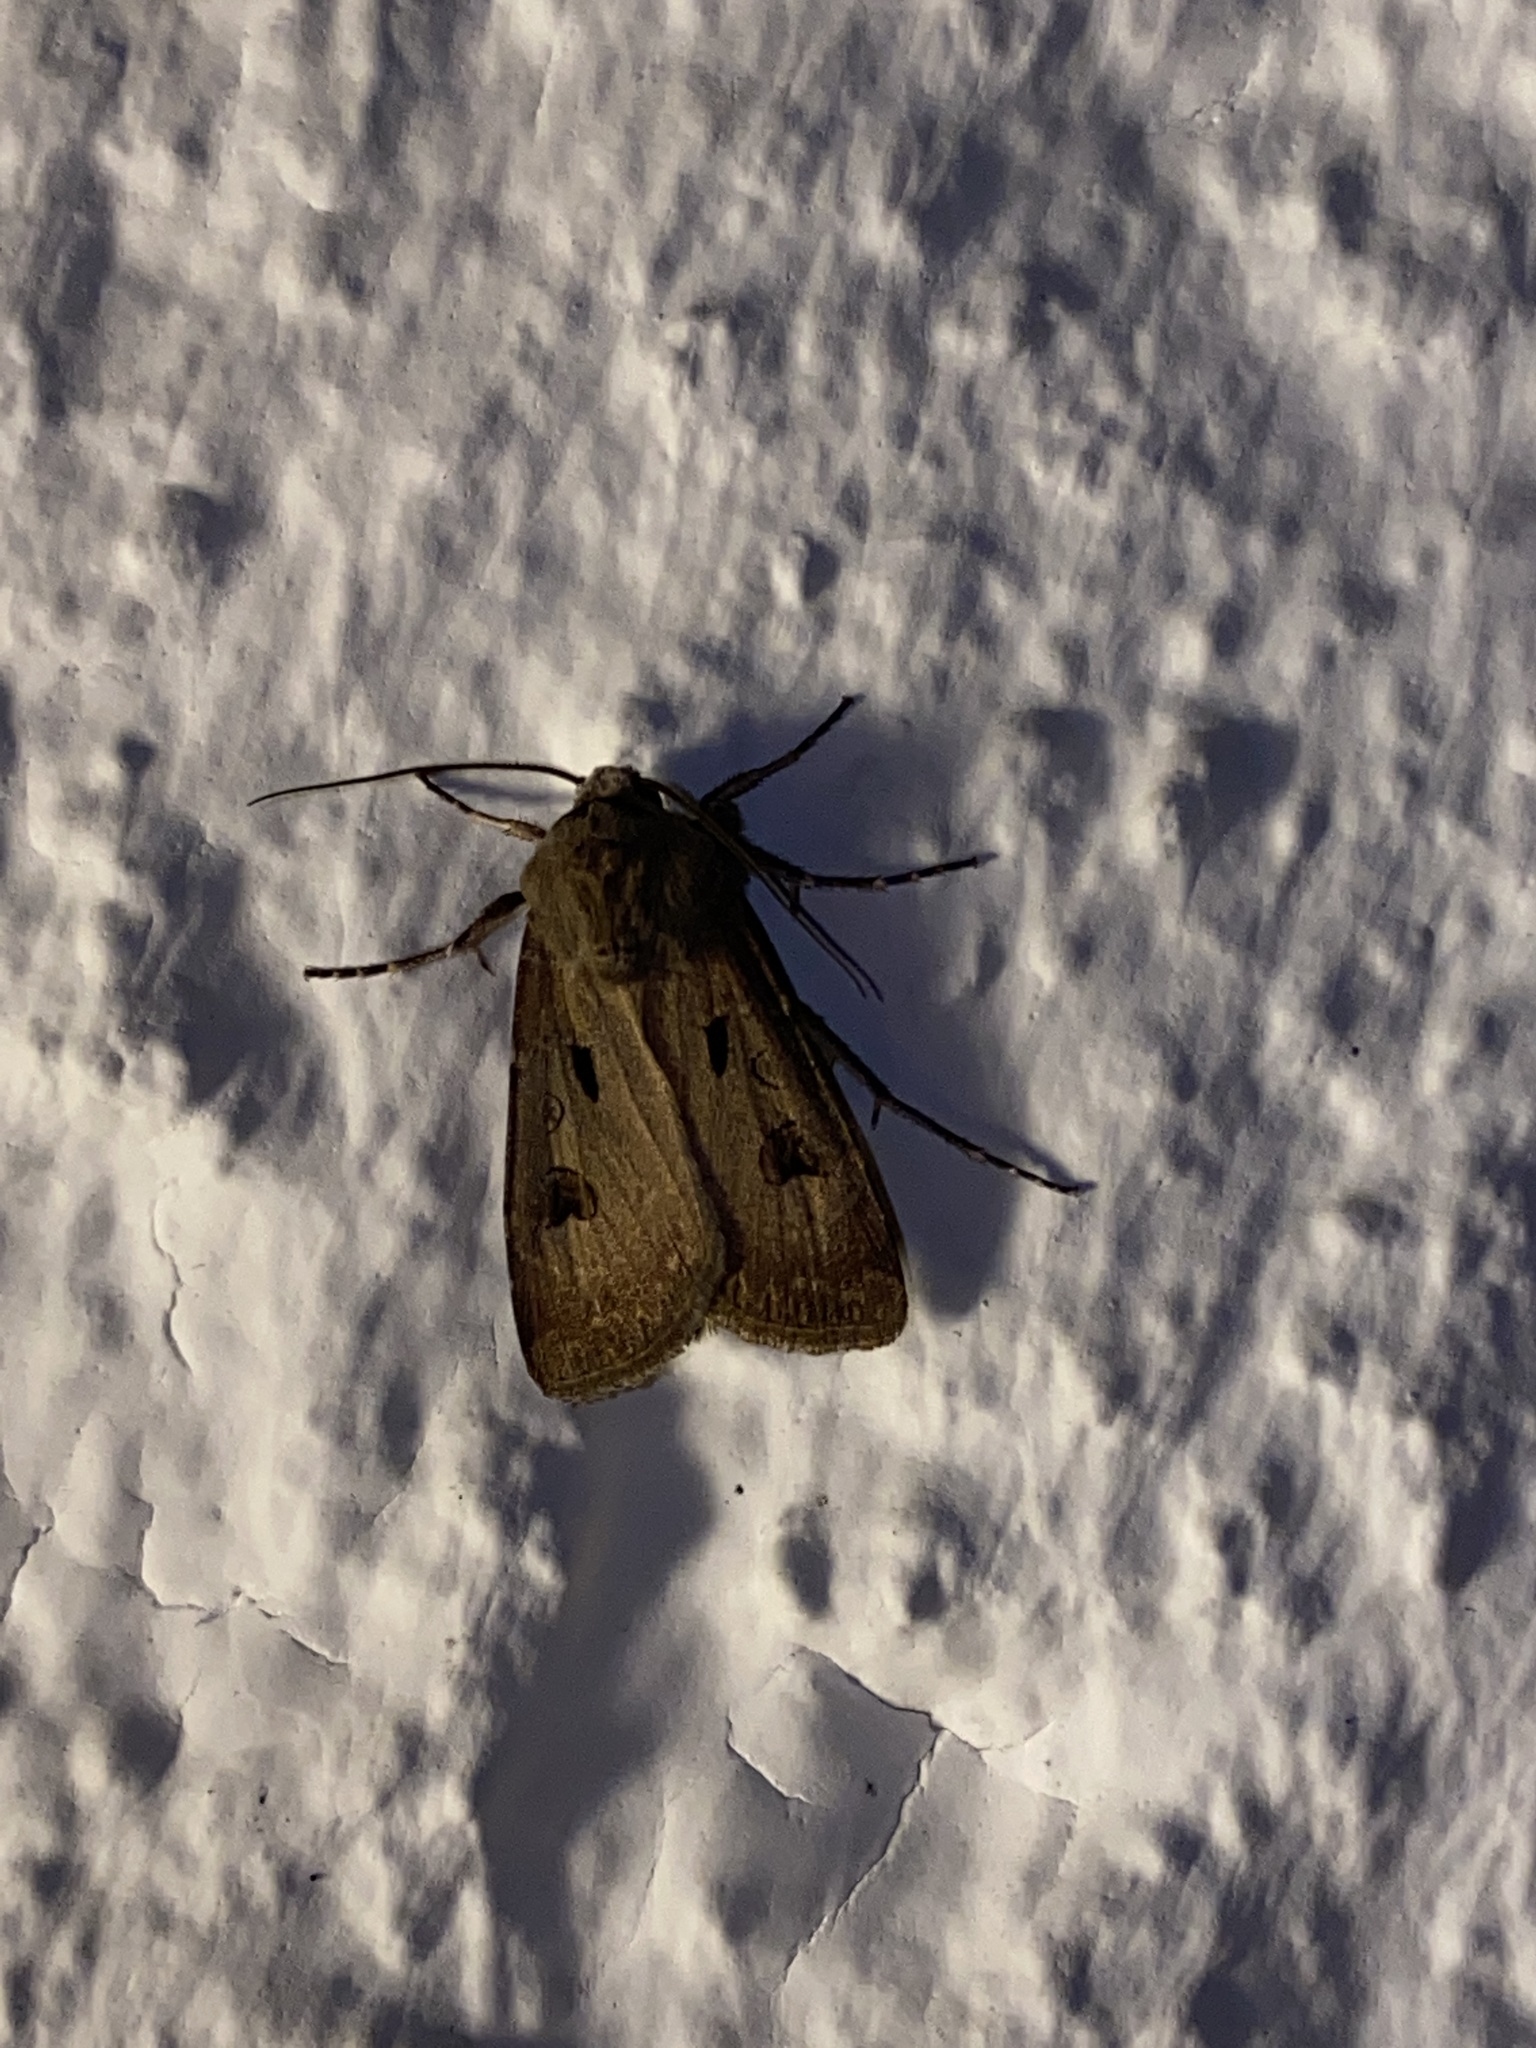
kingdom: Animalia
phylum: Arthropoda
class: Insecta
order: Lepidoptera
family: Noctuidae
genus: Agrotis
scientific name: Agrotis exclamationis
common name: Heart and dart
